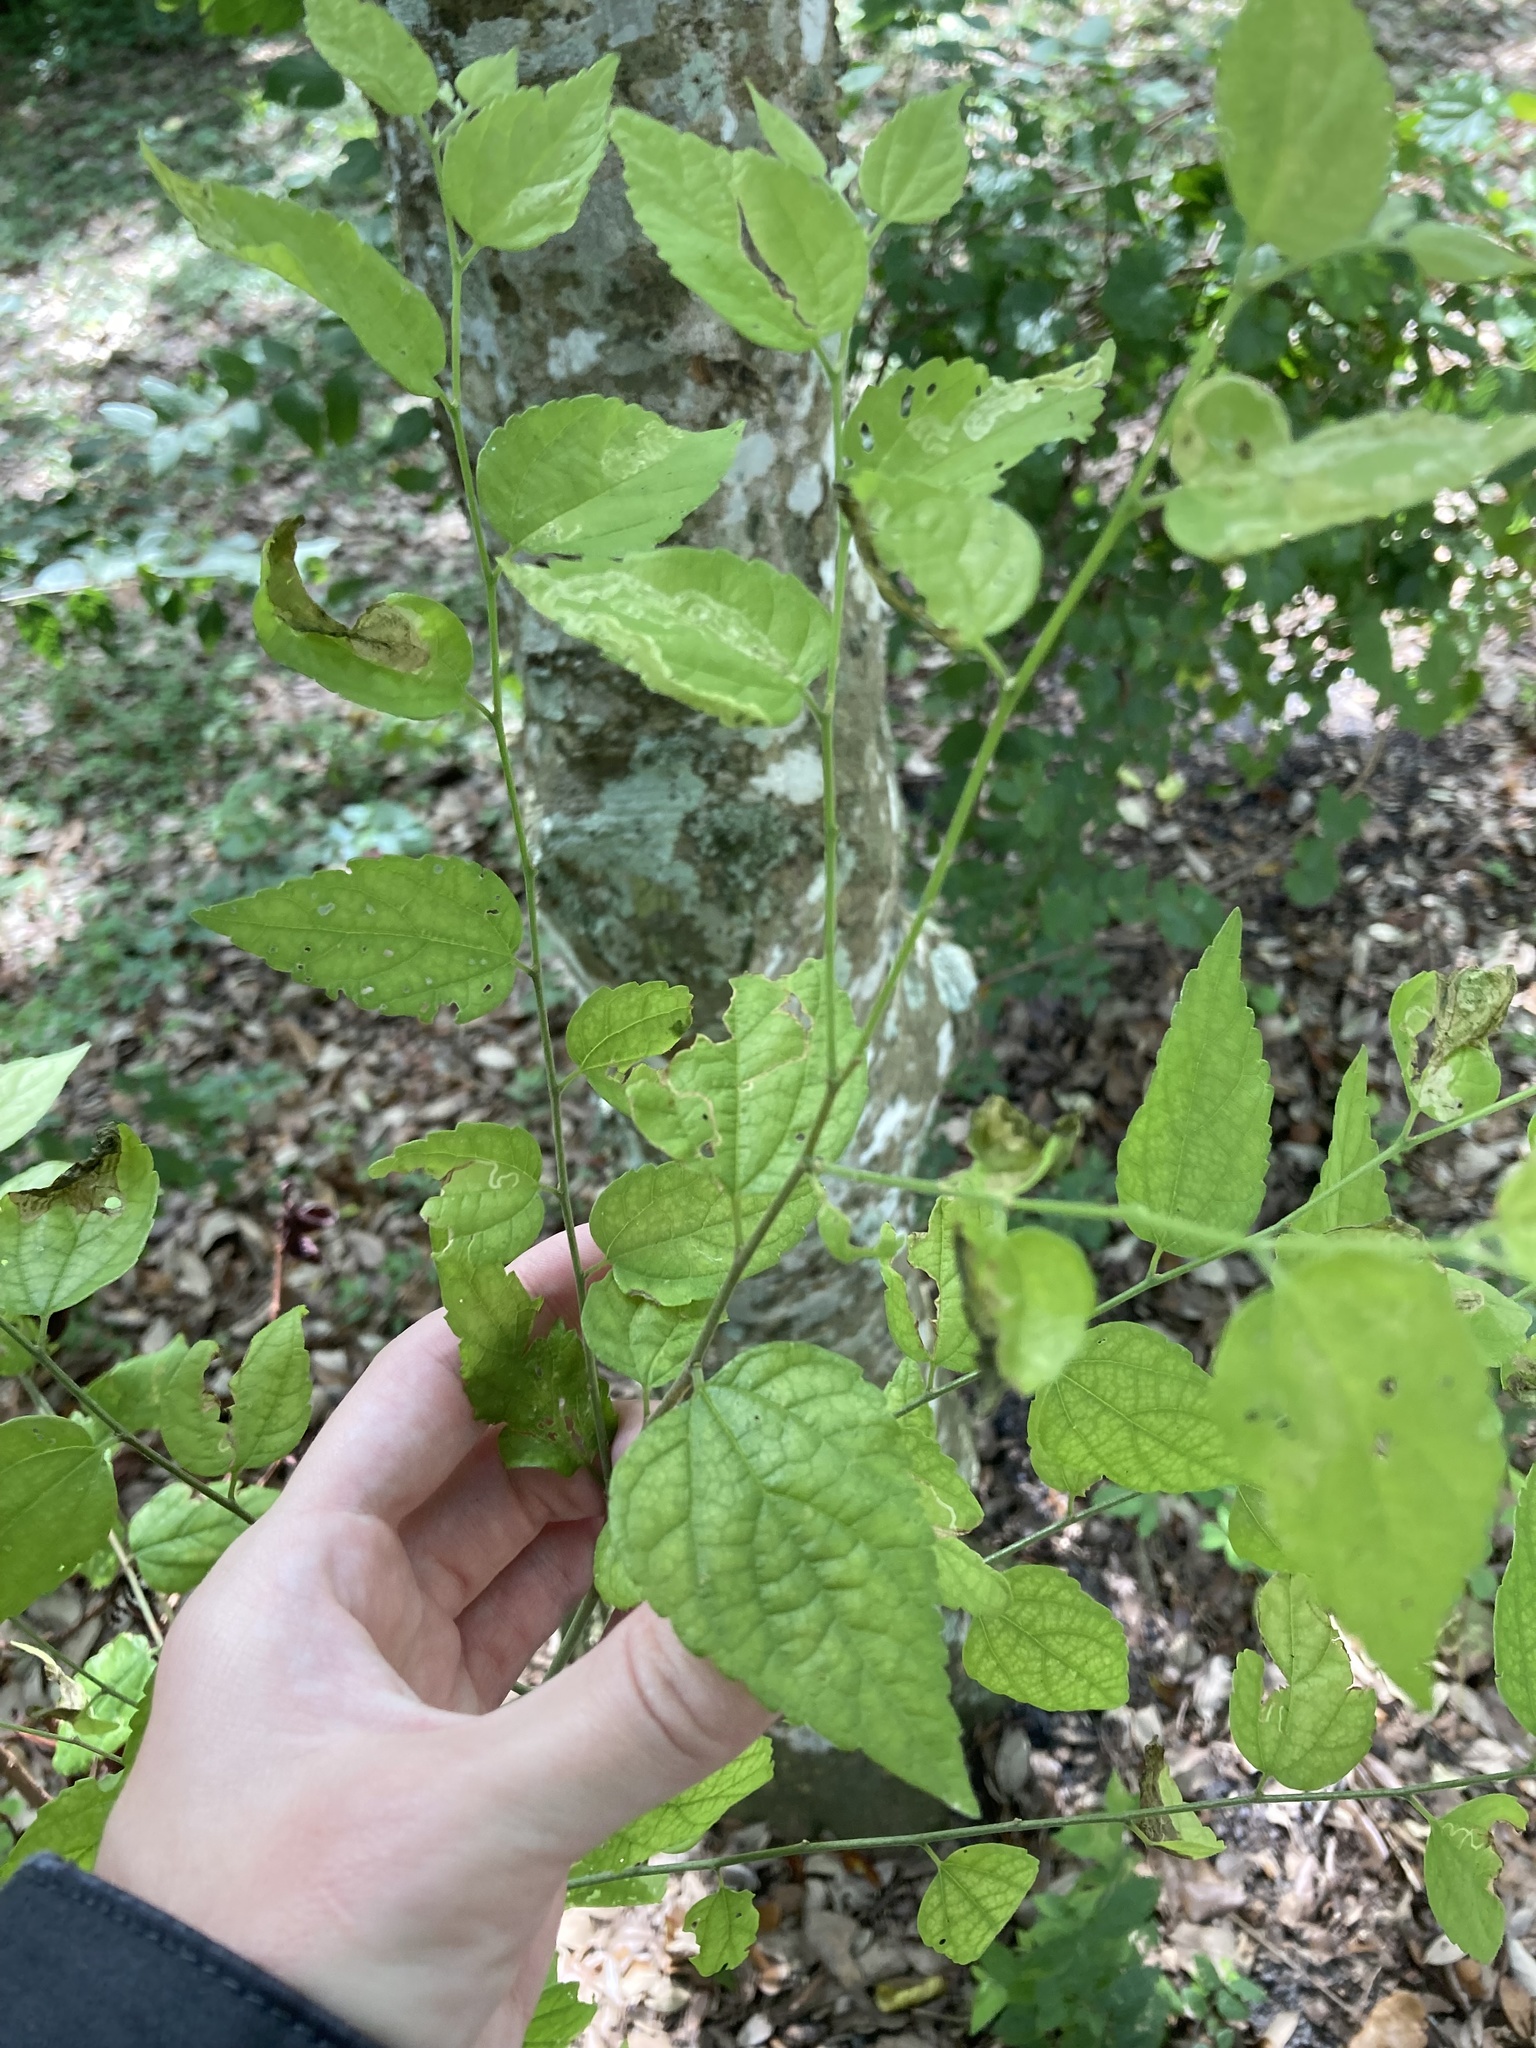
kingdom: Plantae
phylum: Tracheophyta
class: Magnoliopsida
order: Rosales
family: Cannabaceae
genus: Celtis
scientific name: Celtis laevigata
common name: Sugarberry
